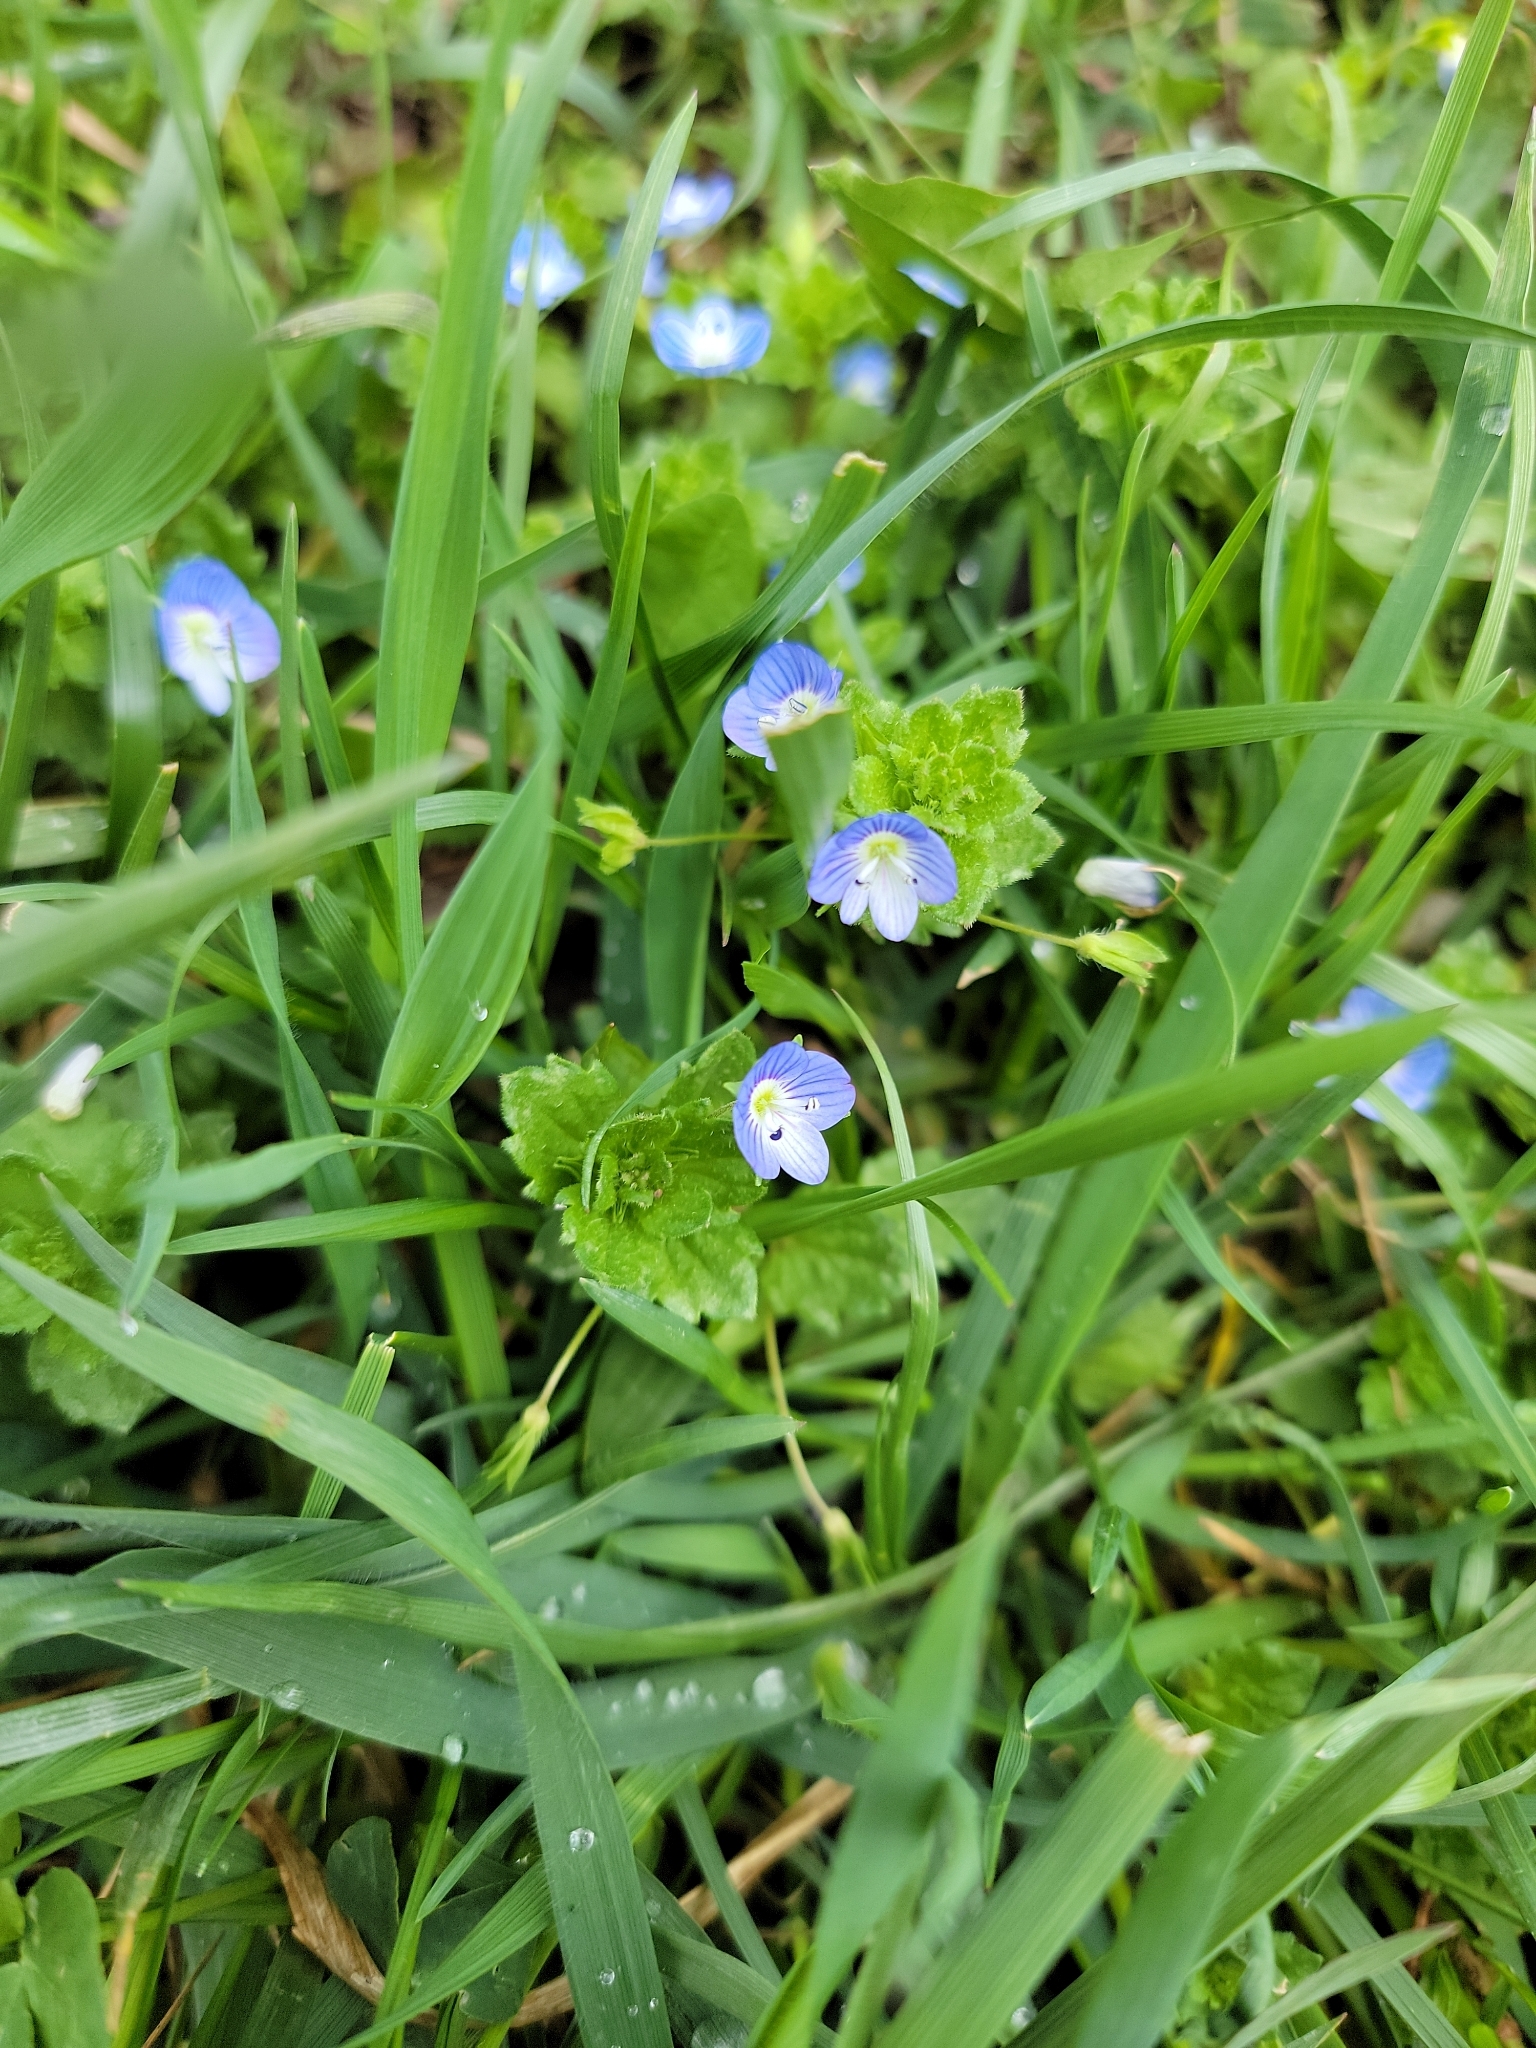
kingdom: Plantae
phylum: Tracheophyta
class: Magnoliopsida
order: Lamiales
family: Plantaginaceae
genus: Veronica
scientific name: Veronica persica
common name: Common field-speedwell
